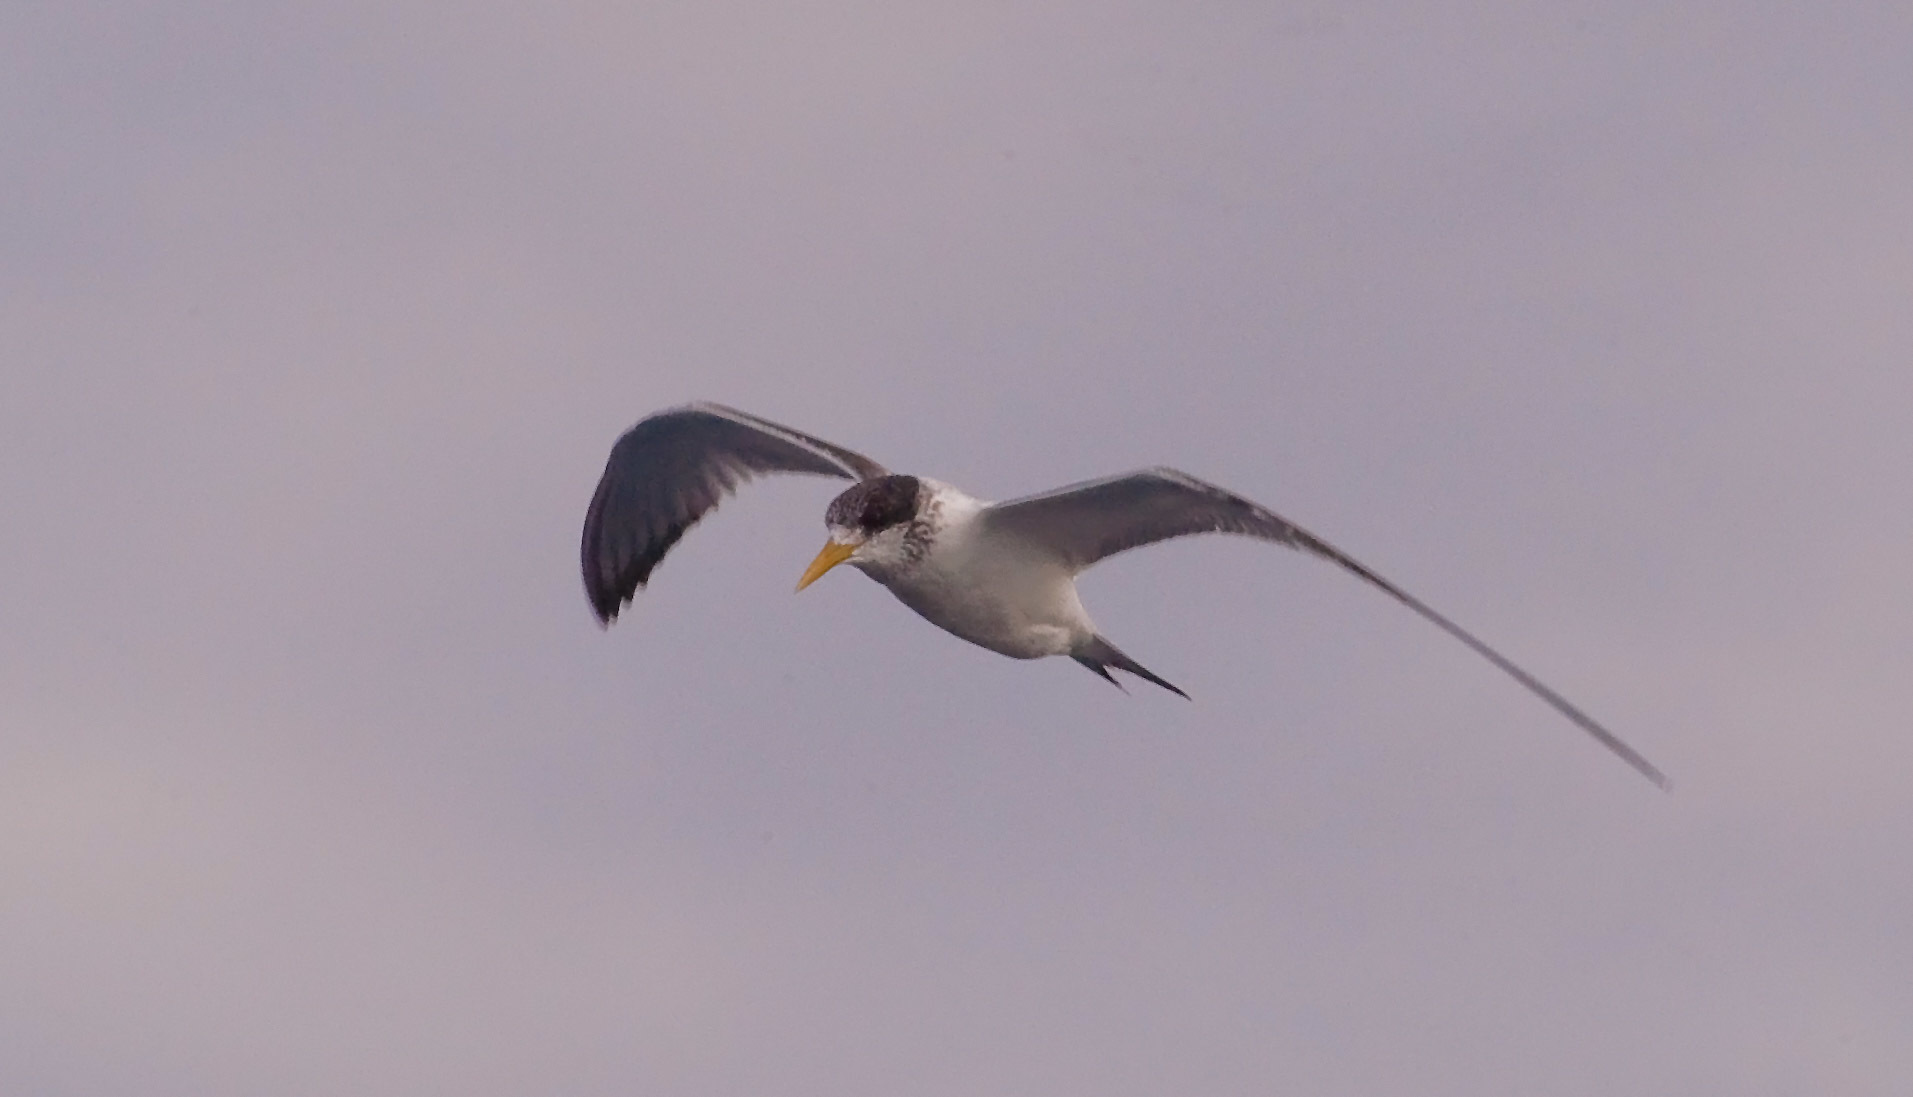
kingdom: Animalia
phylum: Chordata
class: Aves
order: Charadriiformes
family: Laridae
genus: Thalasseus
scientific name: Thalasseus bergii
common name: Greater crested tern
